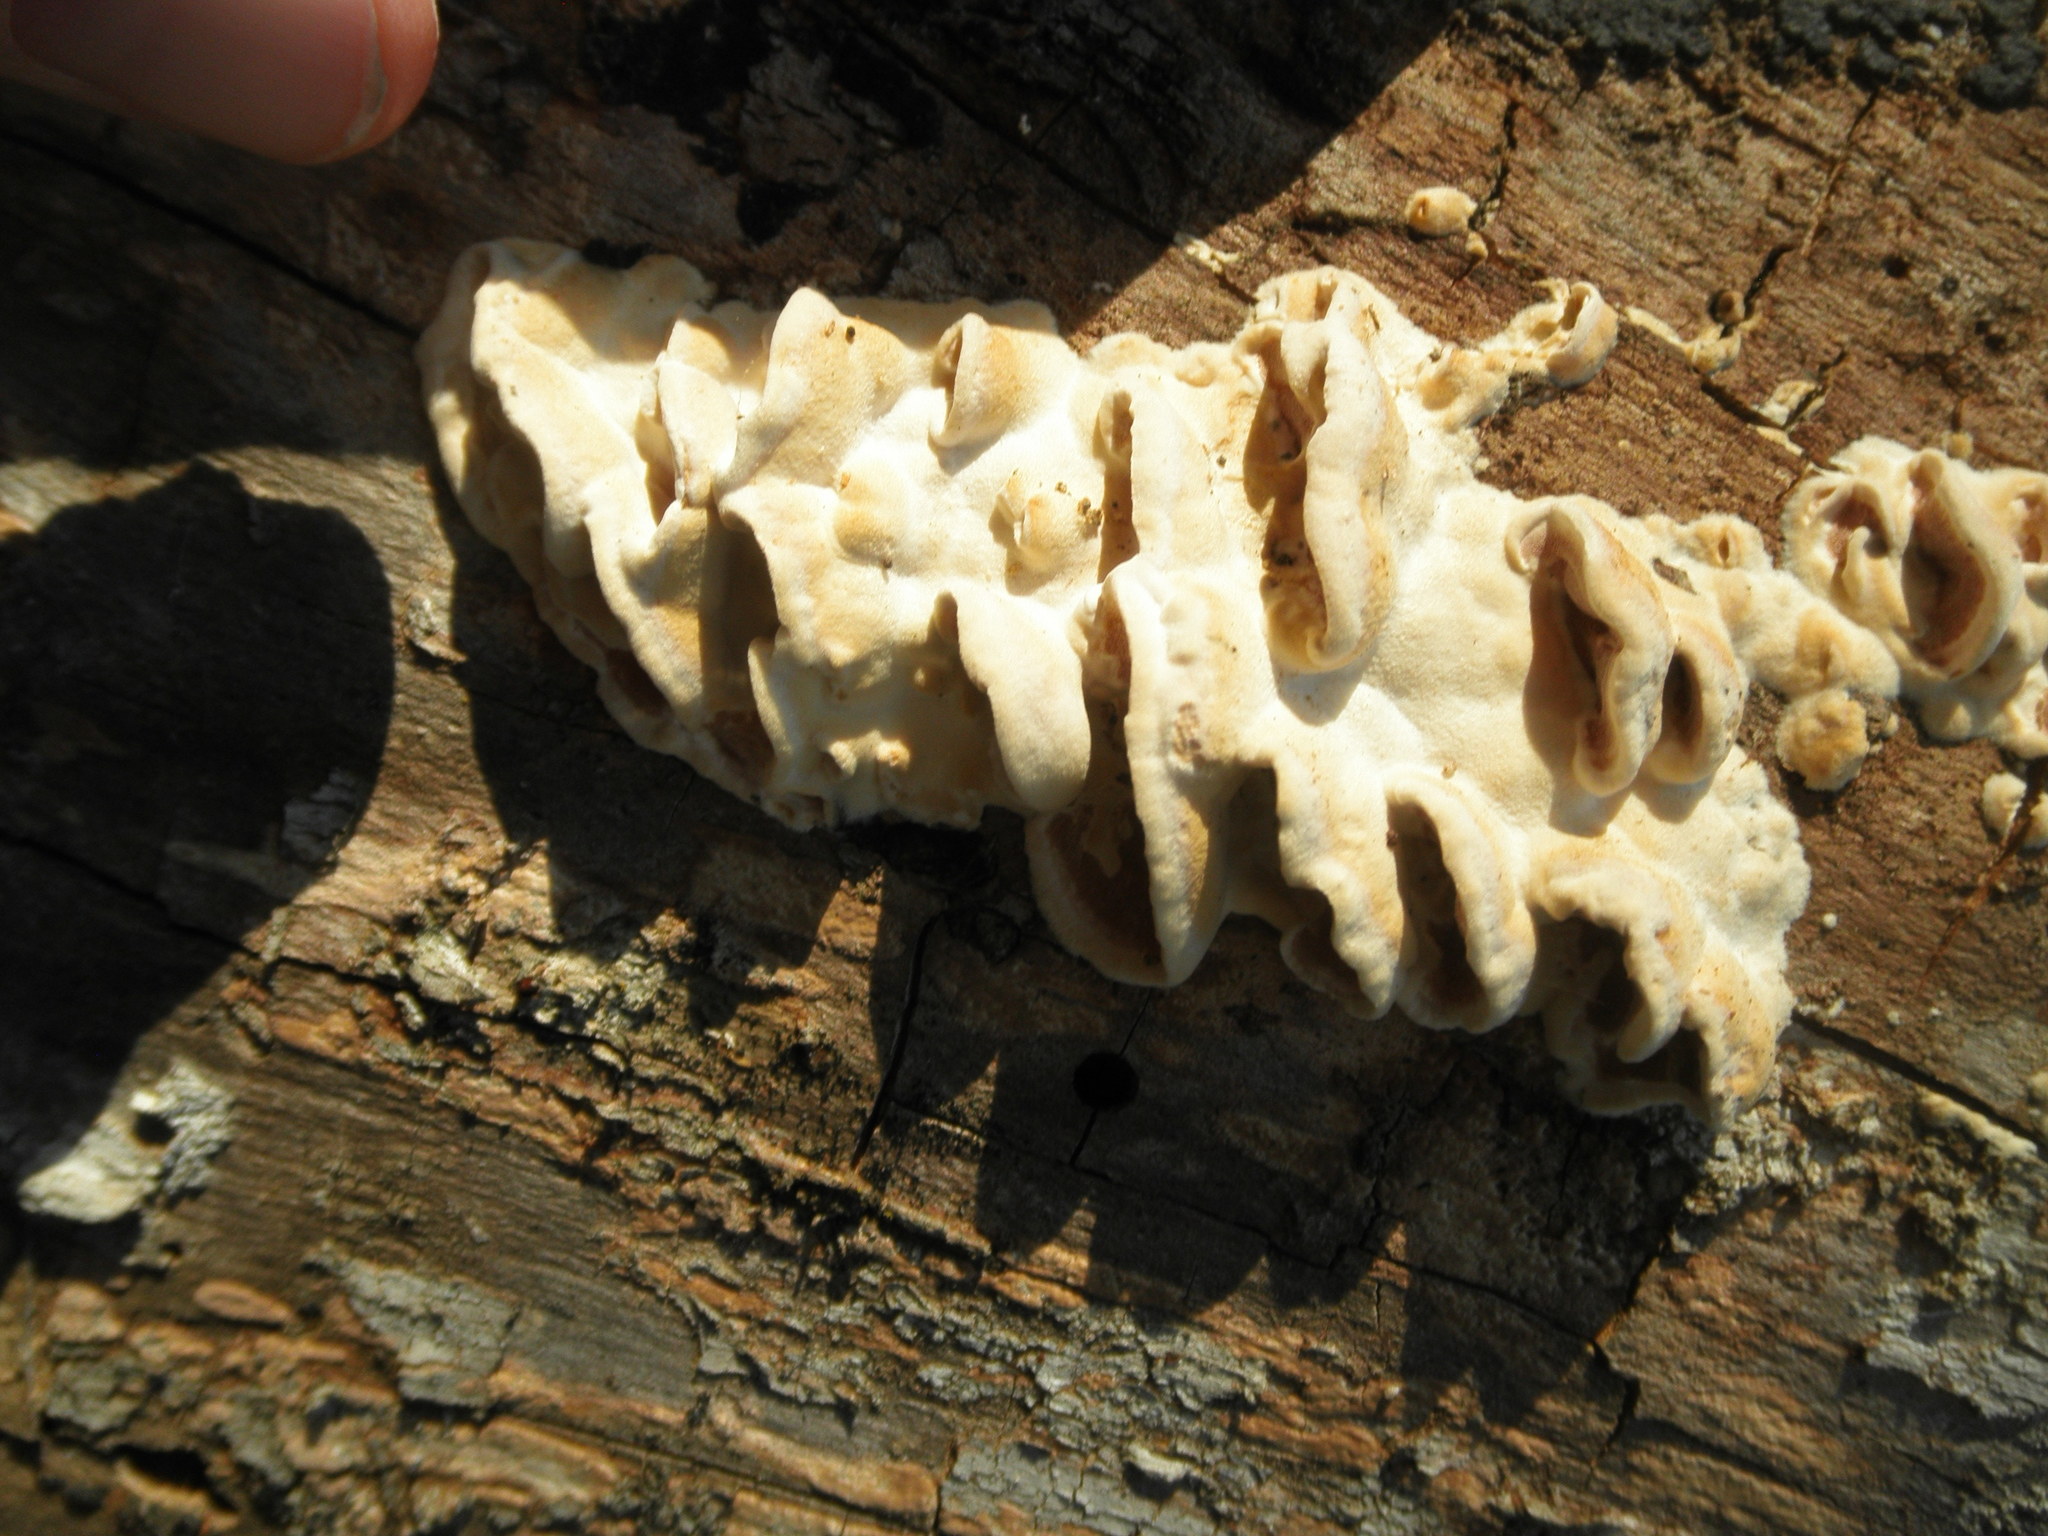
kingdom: Fungi
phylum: Basidiomycota
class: Agaricomycetes
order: Polyporales
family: Irpicaceae
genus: Vitreoporus
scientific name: Vitreoporus dichrous
